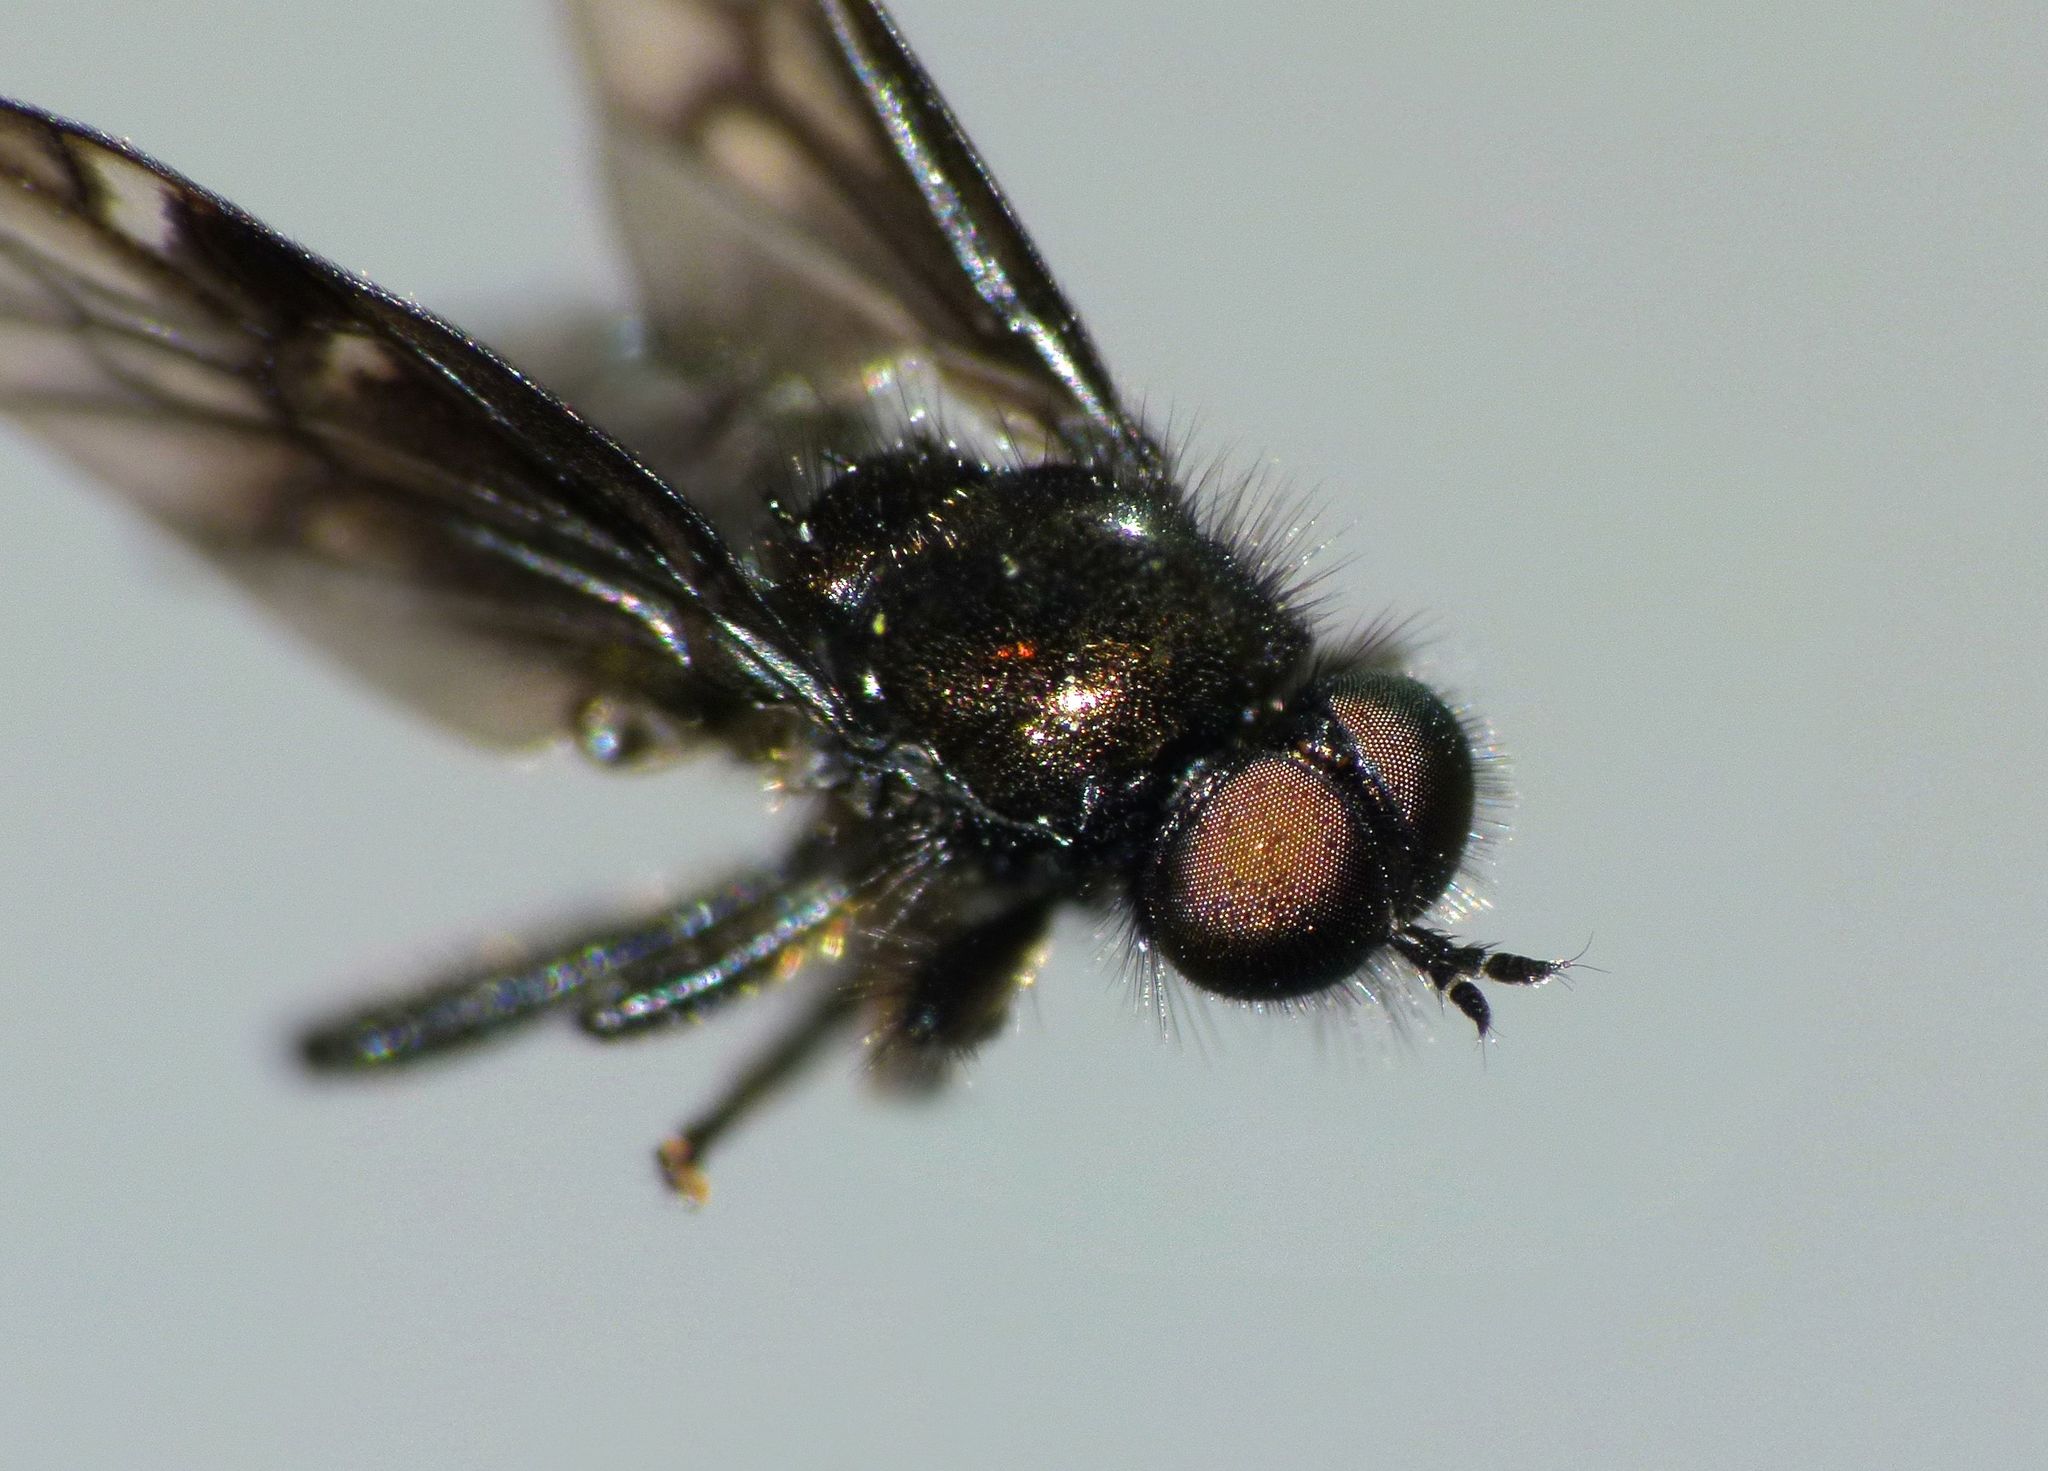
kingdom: Animalia
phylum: Arthropoda
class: Insecta
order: Diptera
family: Stratiomyidae
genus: Berisina
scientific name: Berisina maculipennis
